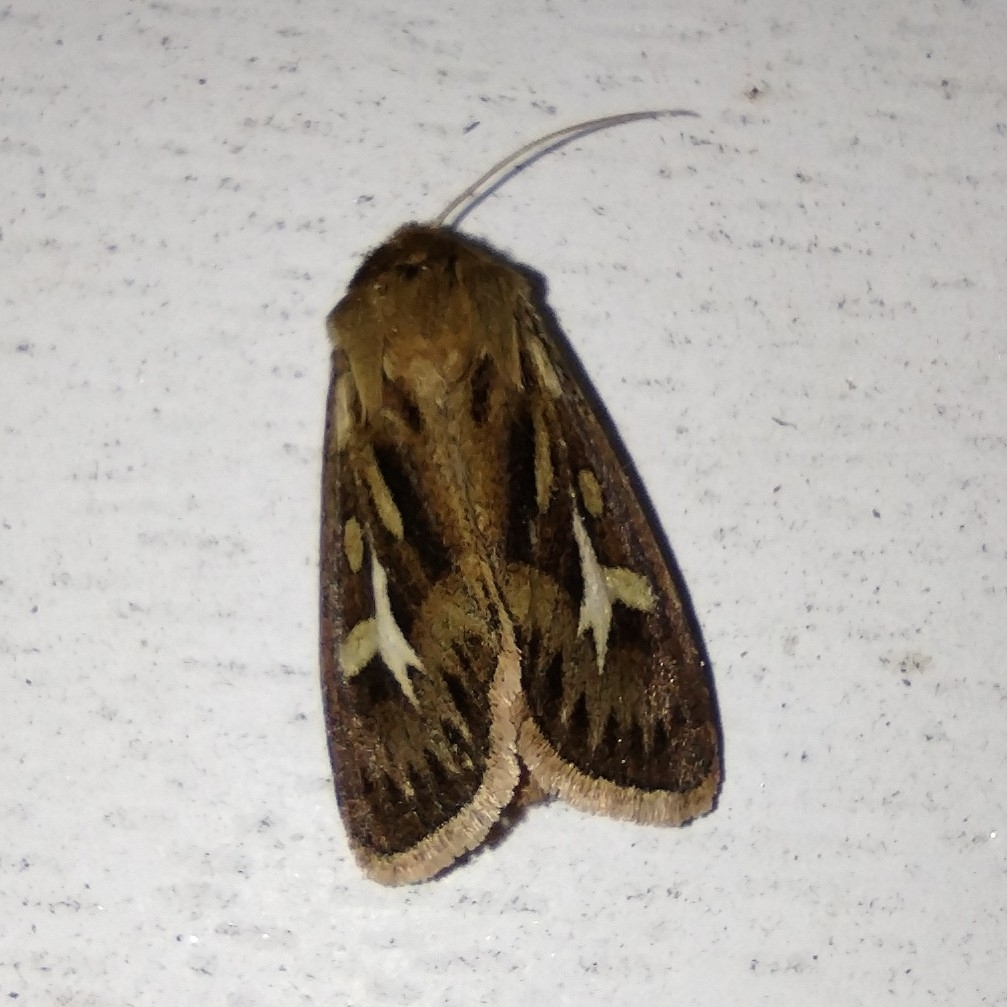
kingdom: Animalia
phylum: Arthropoda
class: Insecta
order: Lepidoptera
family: Noctuidae
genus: Cerapteryx
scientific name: Cerapteryx graminis
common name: Antler moth
